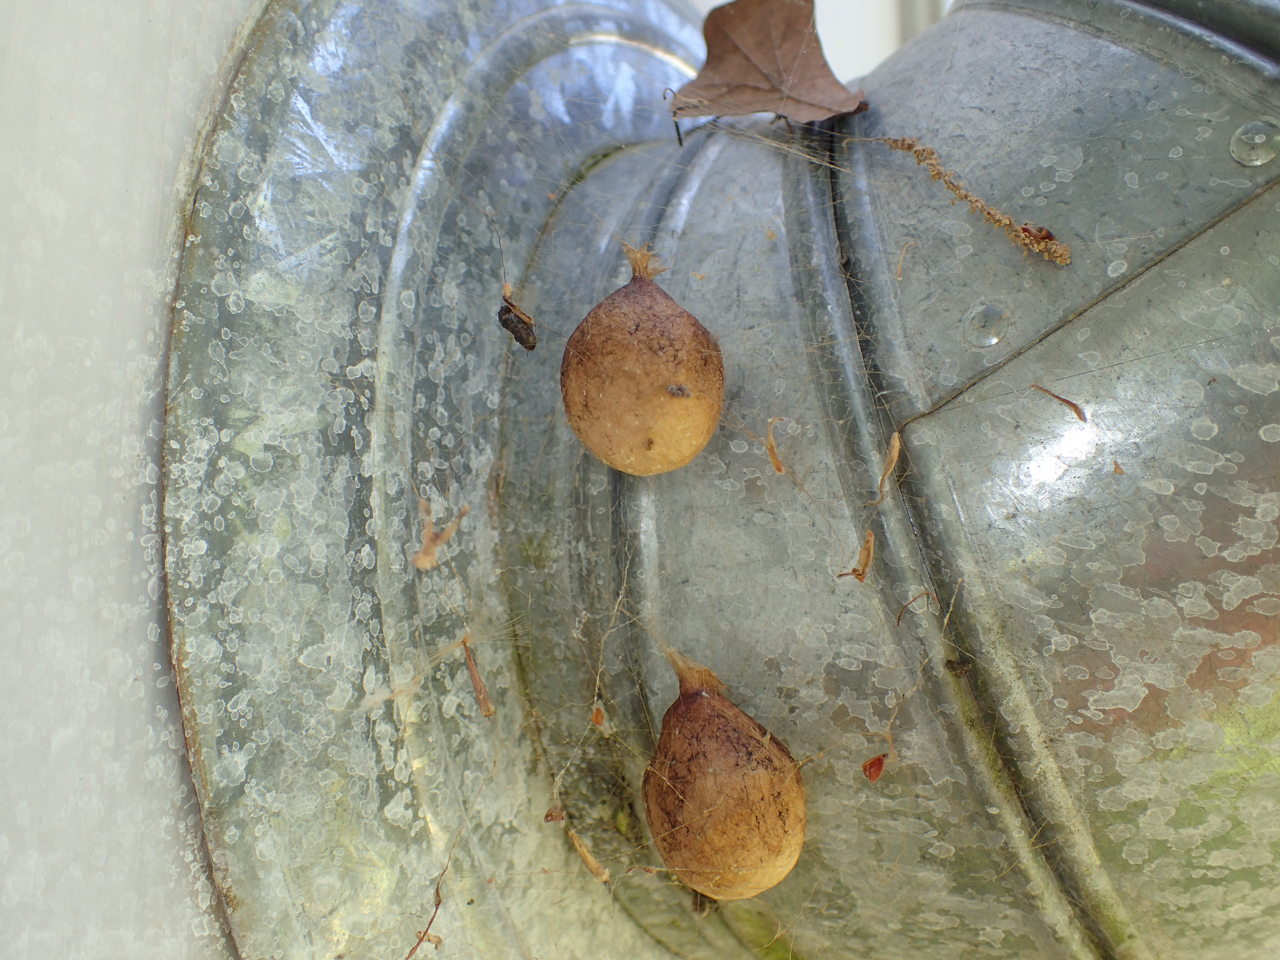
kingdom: Animalia
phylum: Arthropoda
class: Arachnida
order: Araneae
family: Araneidae
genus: Argiope
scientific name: Argiope aurantia
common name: Orb weavers
